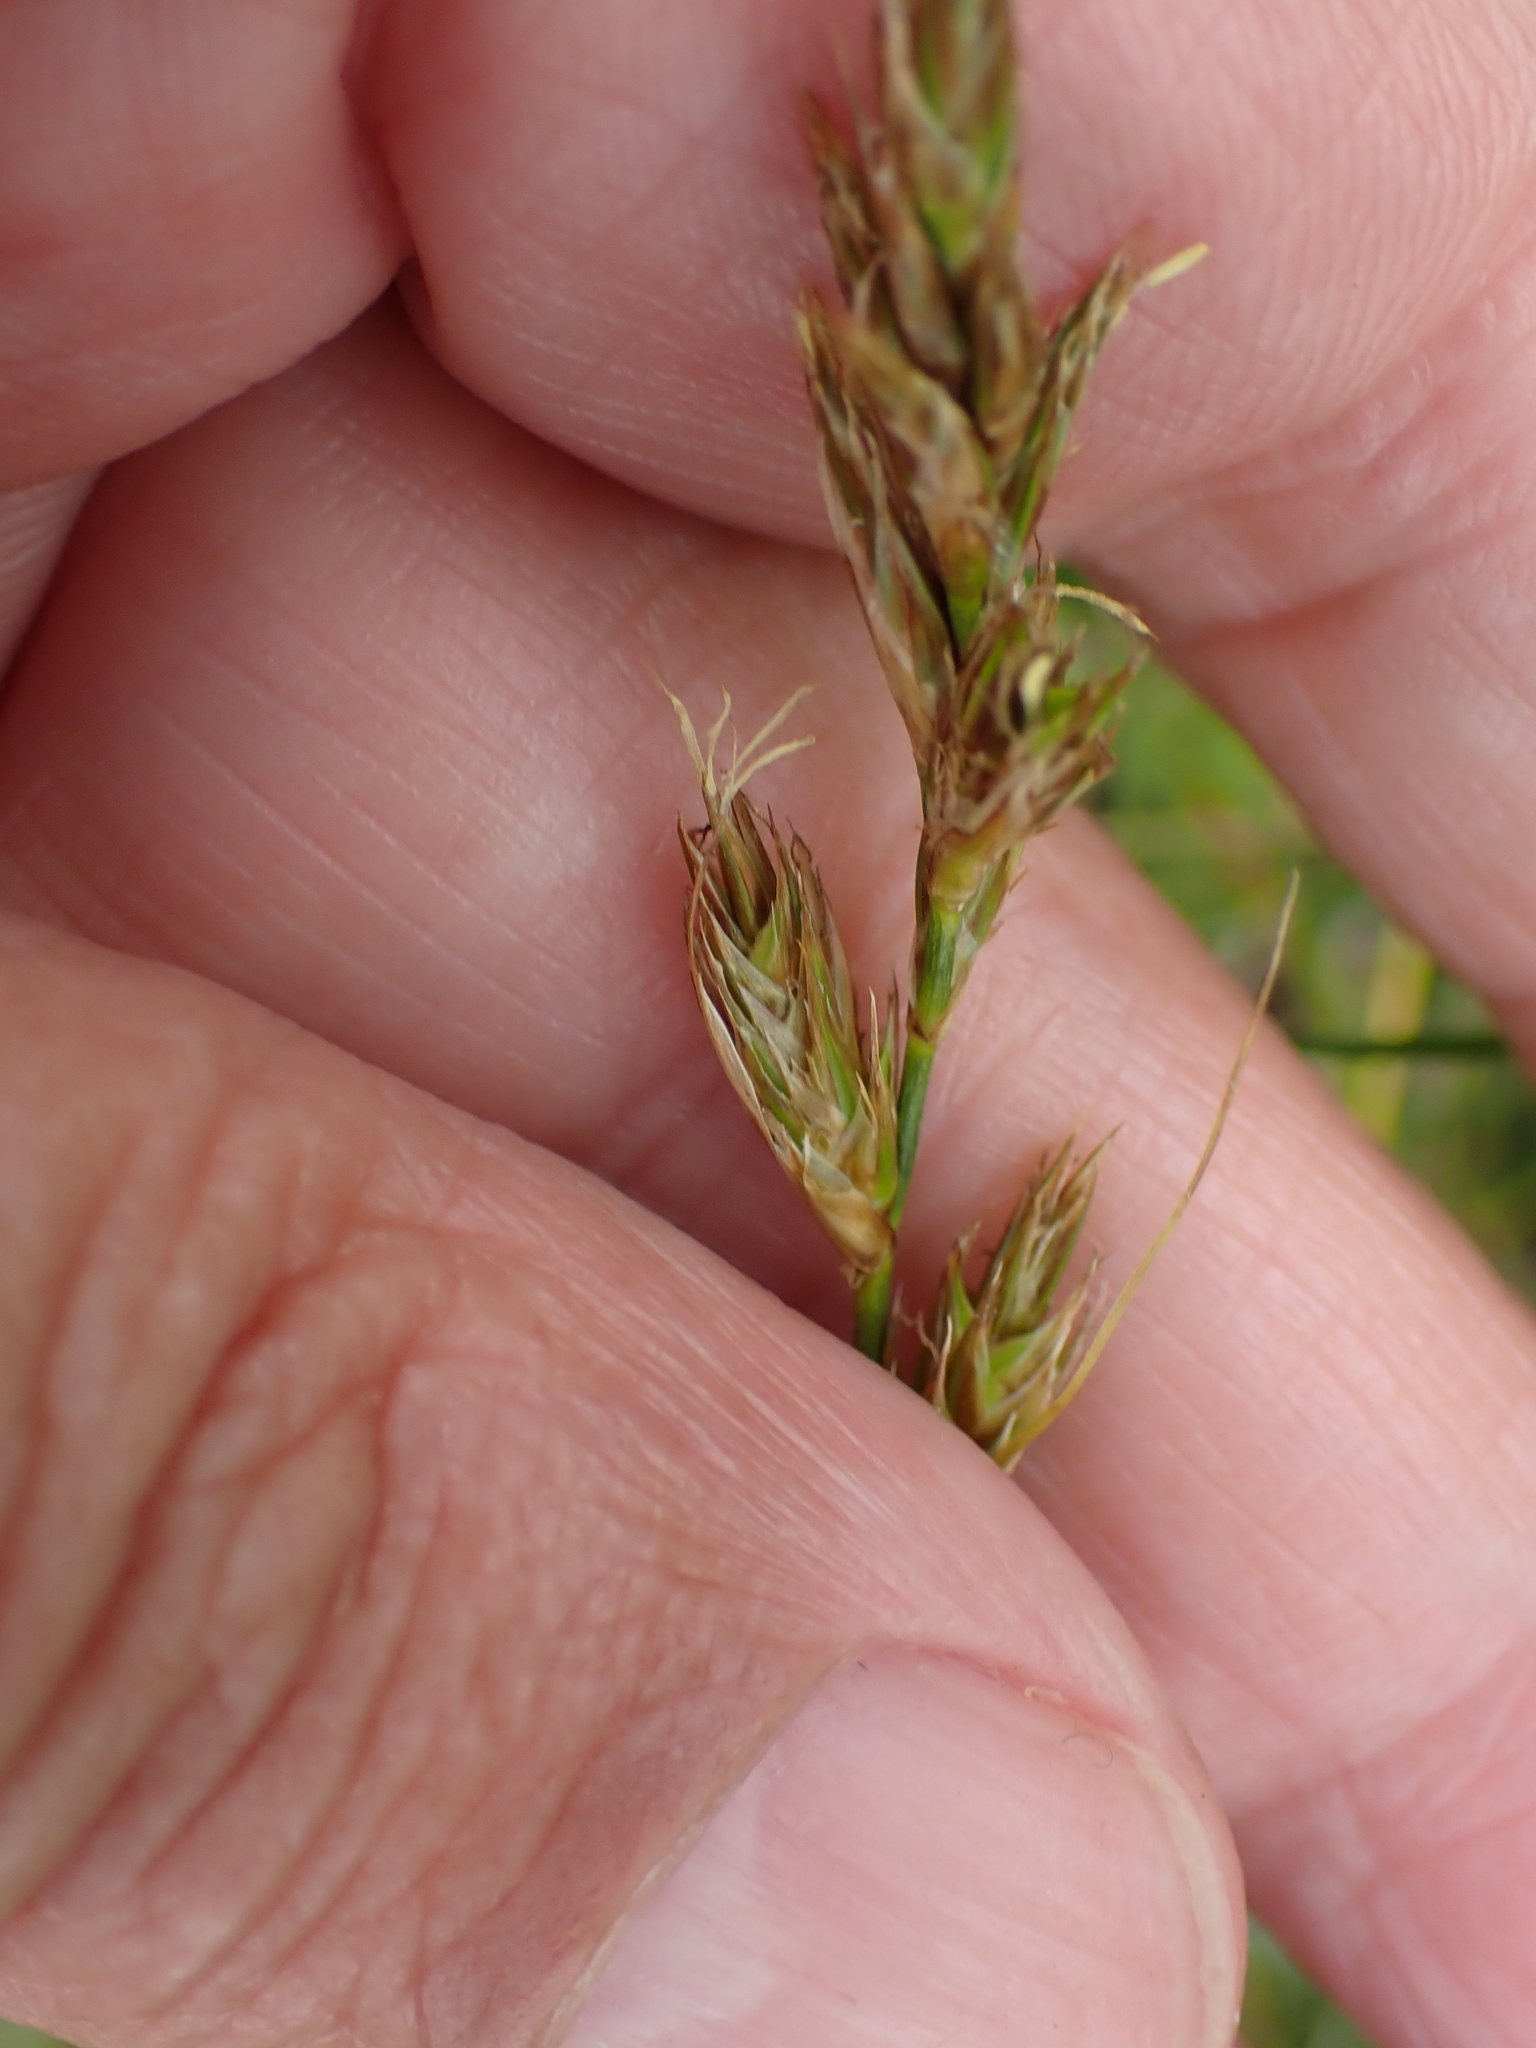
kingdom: Plantae
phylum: Tracheophyta
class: Liliopsida
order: Poales
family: Cyperaceae
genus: Carex
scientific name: Carex arenaria
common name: Sand sedge
